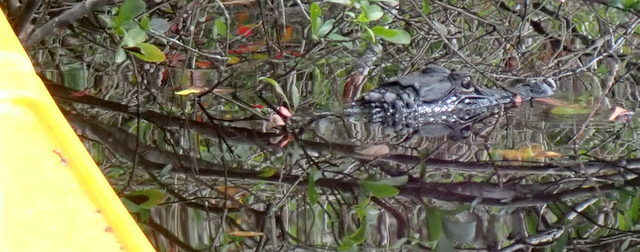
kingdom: Animalia
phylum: Chordata
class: Crocodylia
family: Alligatoridae
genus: Alligator
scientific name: Alligator mississippiensis
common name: American alligator
